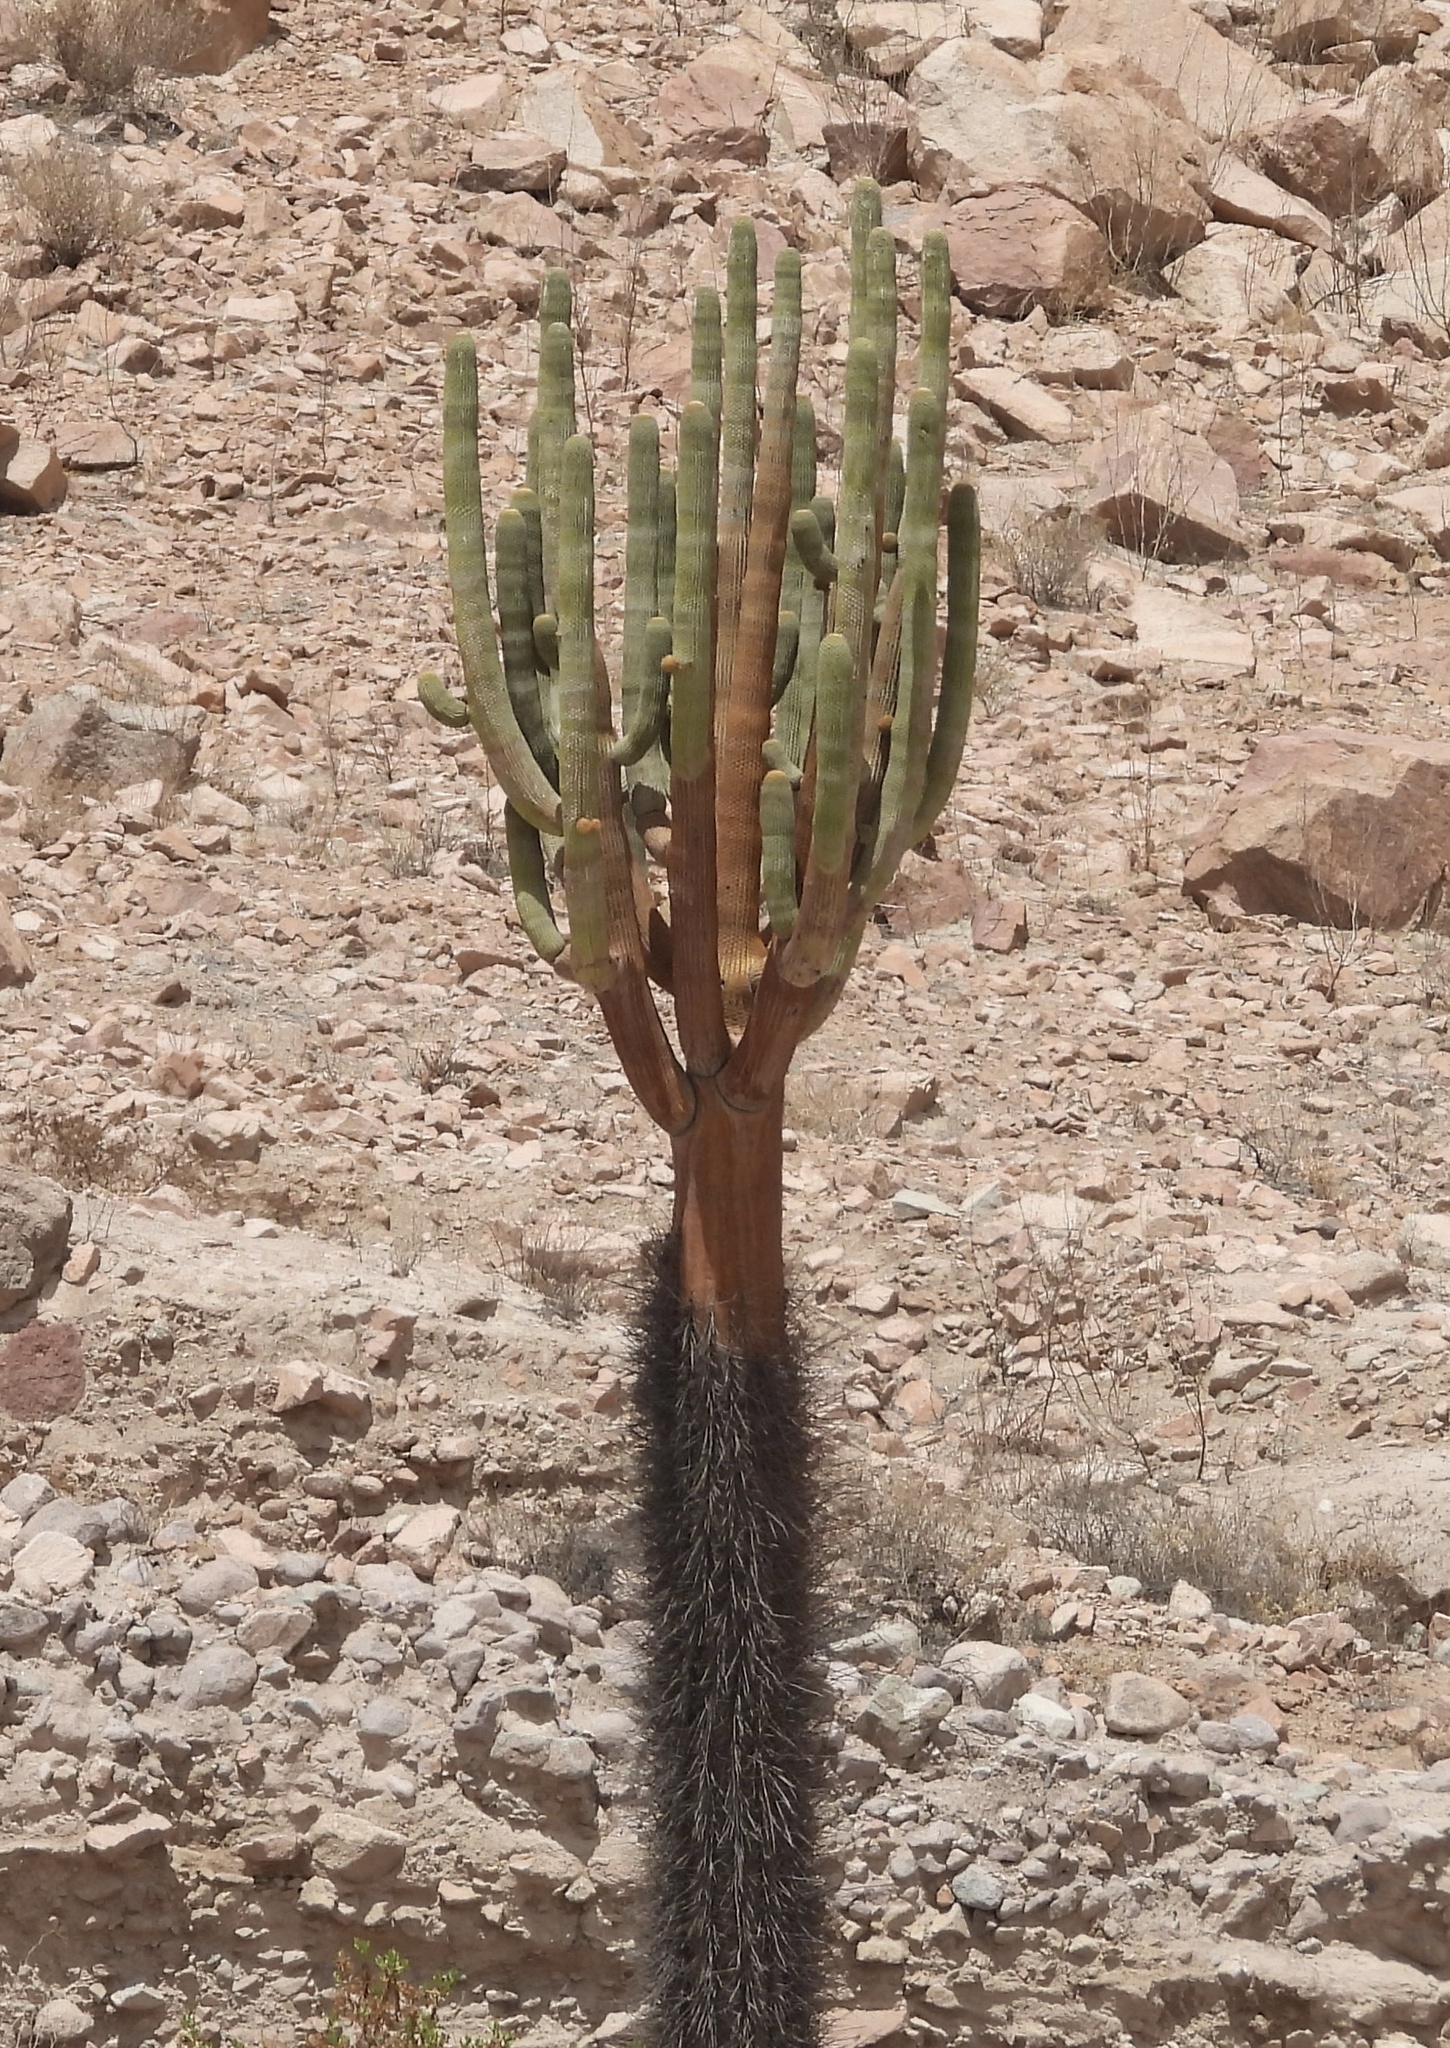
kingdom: Plantae
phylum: Tracheophyta
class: Magnoliopsida
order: Caryophyllales
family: Cactaceae
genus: Browningia
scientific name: Browningia candelaris
